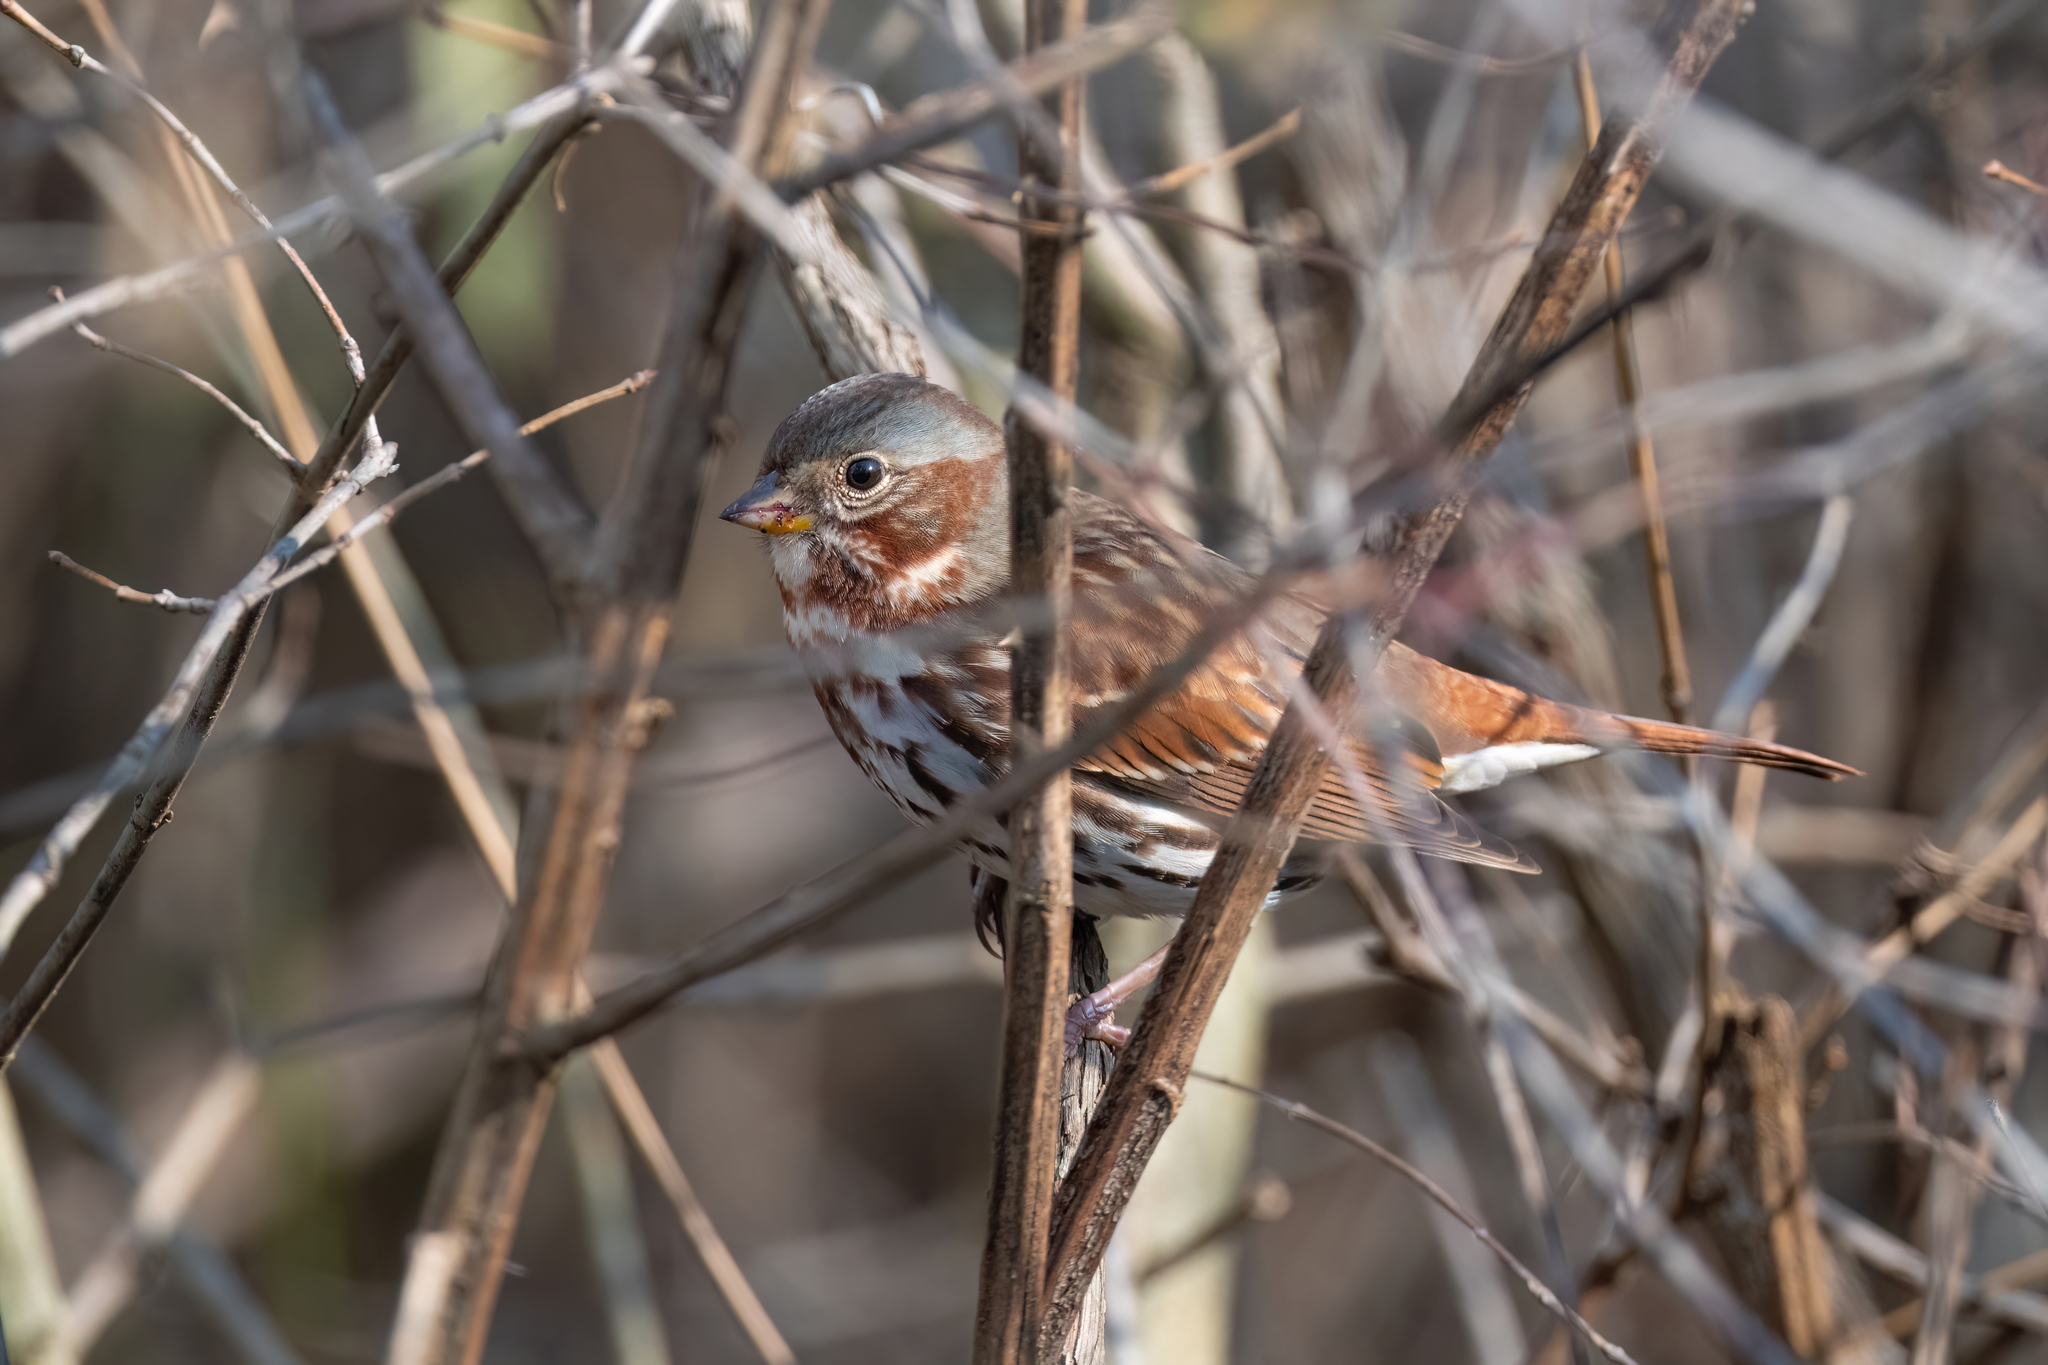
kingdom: Animalia
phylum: Chordata
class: Aves
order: Passeriformes
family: Passerellidae
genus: Passerella
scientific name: Passerella iliaca
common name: Fox sparrow
